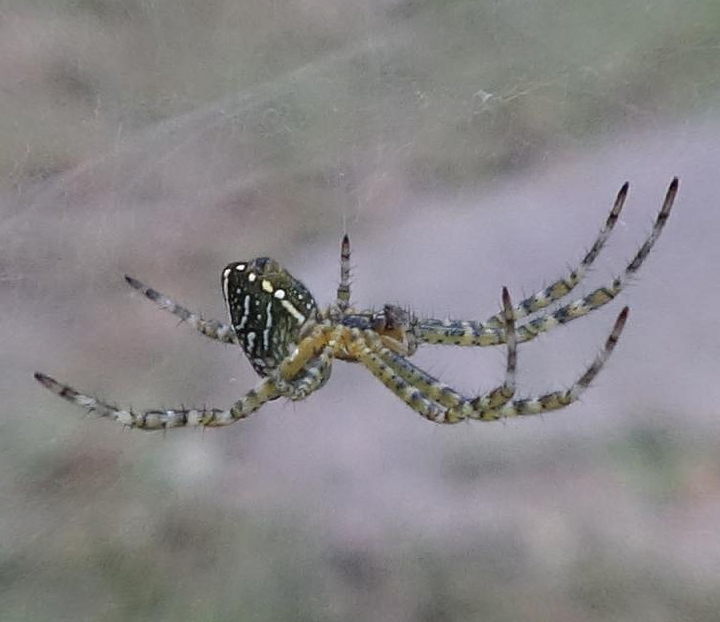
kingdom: Chromista
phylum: Ochrophyta
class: Dictyochophyceae
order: Pedinellales
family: Cyrtophoraceae
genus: Cyrtophora
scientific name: Cyrtophora moluccensis
